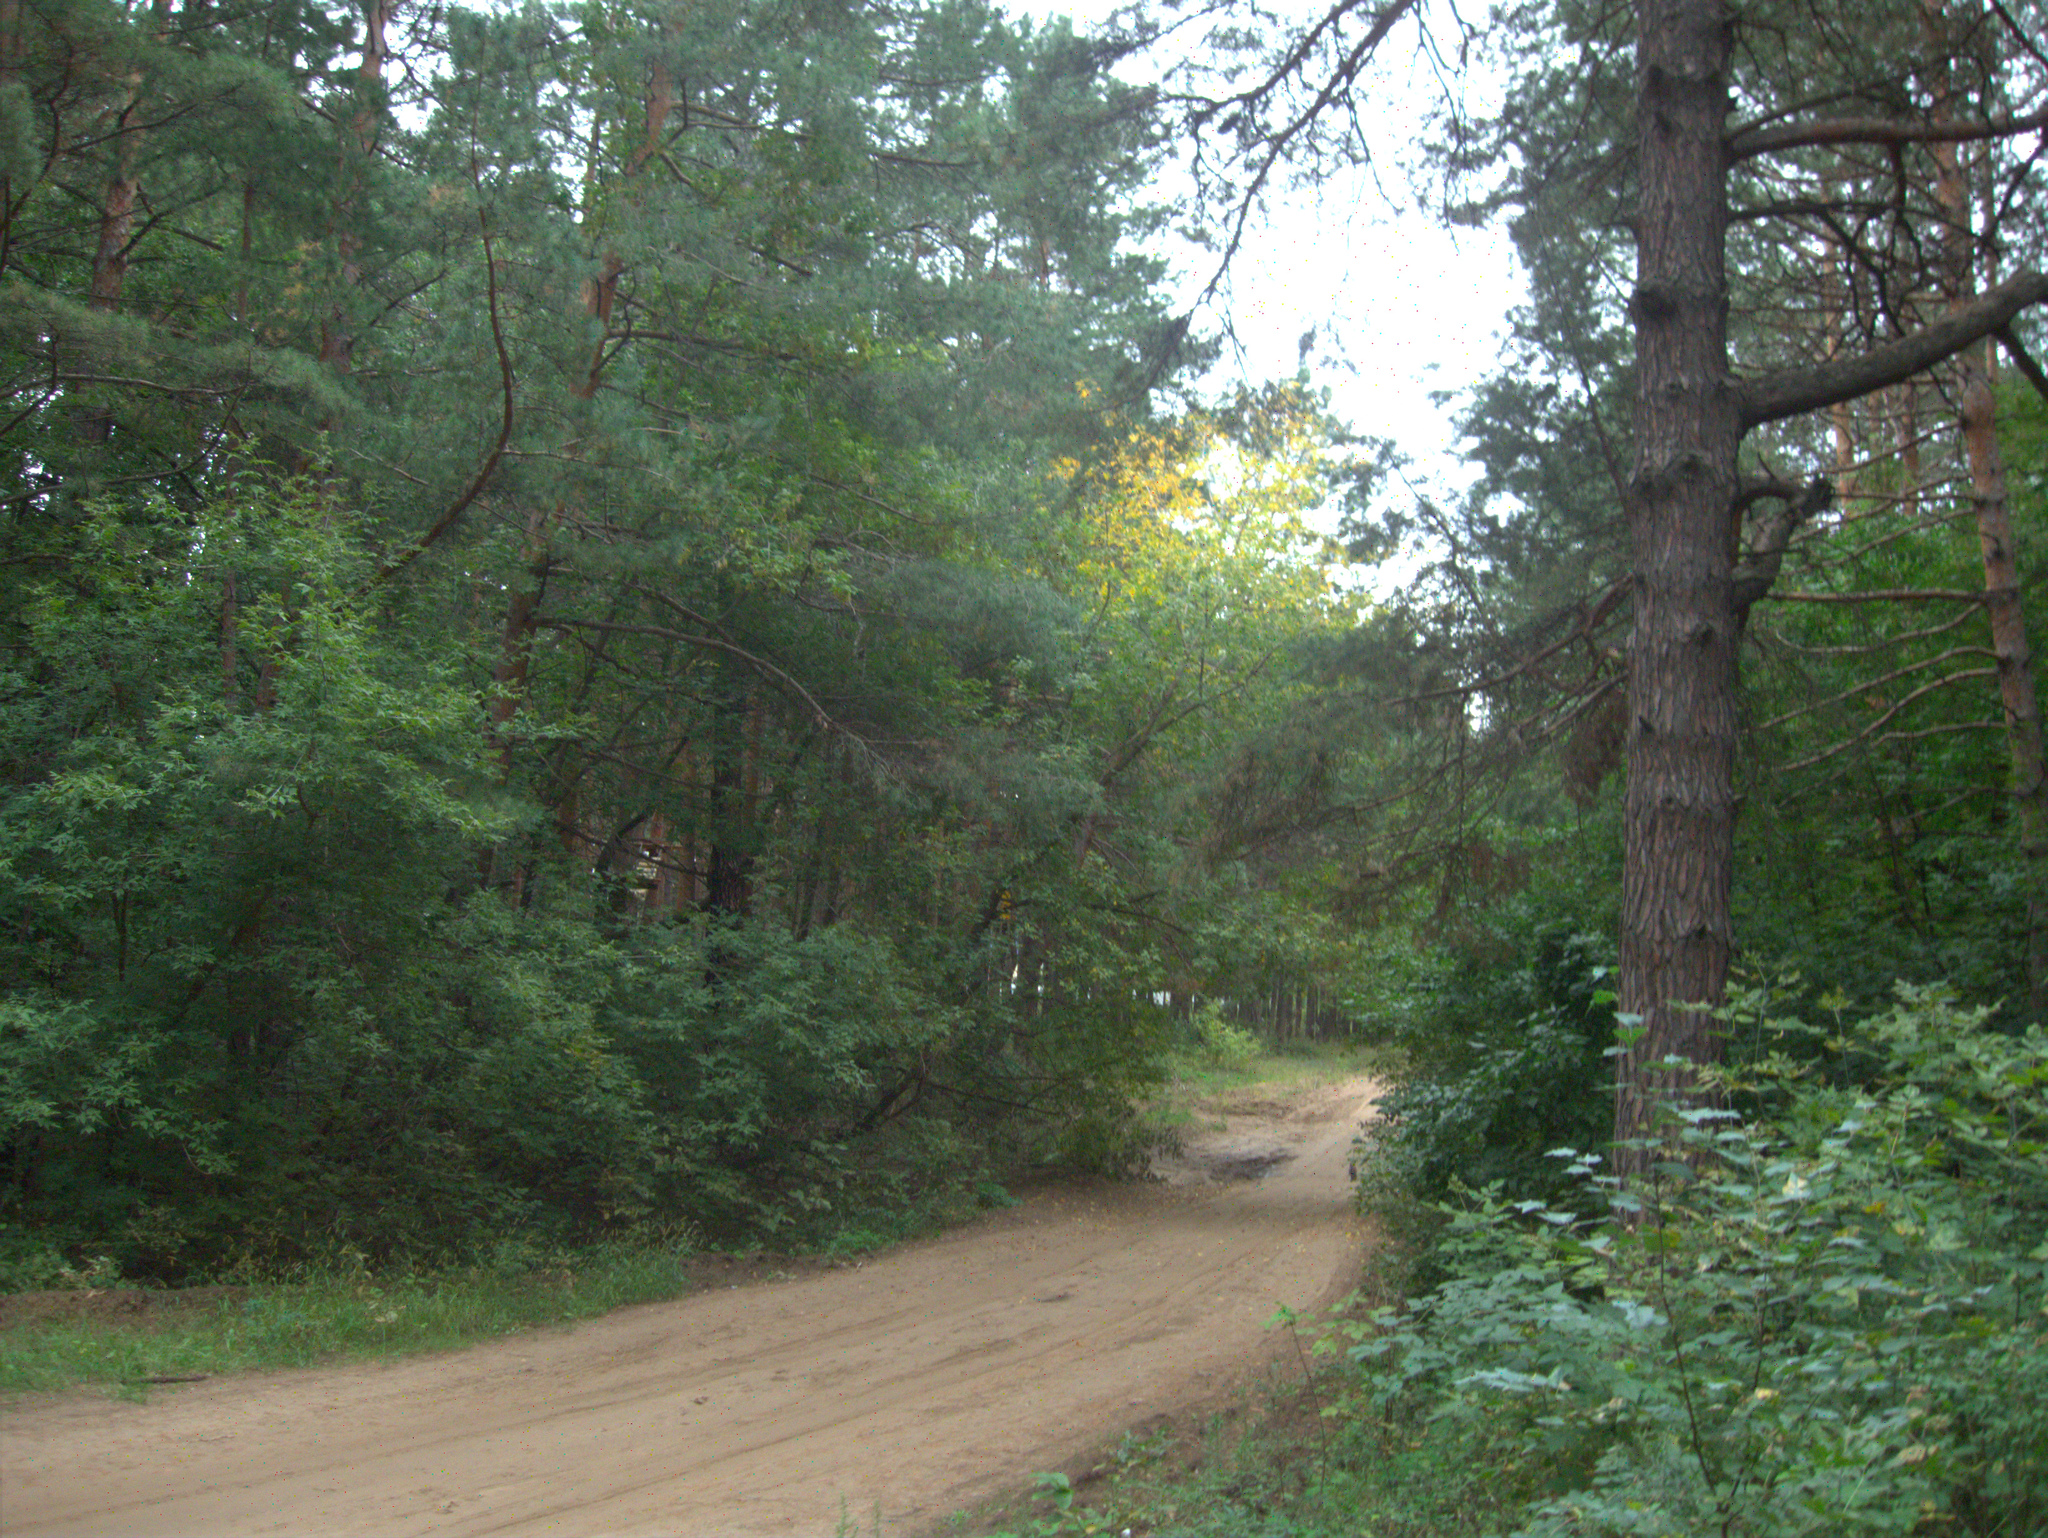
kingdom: Plantae
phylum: Tracheophyta
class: Magnoliopsida
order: Sapindales
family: Sapindaceae
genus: Acer
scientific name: Acer negundo
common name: Ashleaf maple
